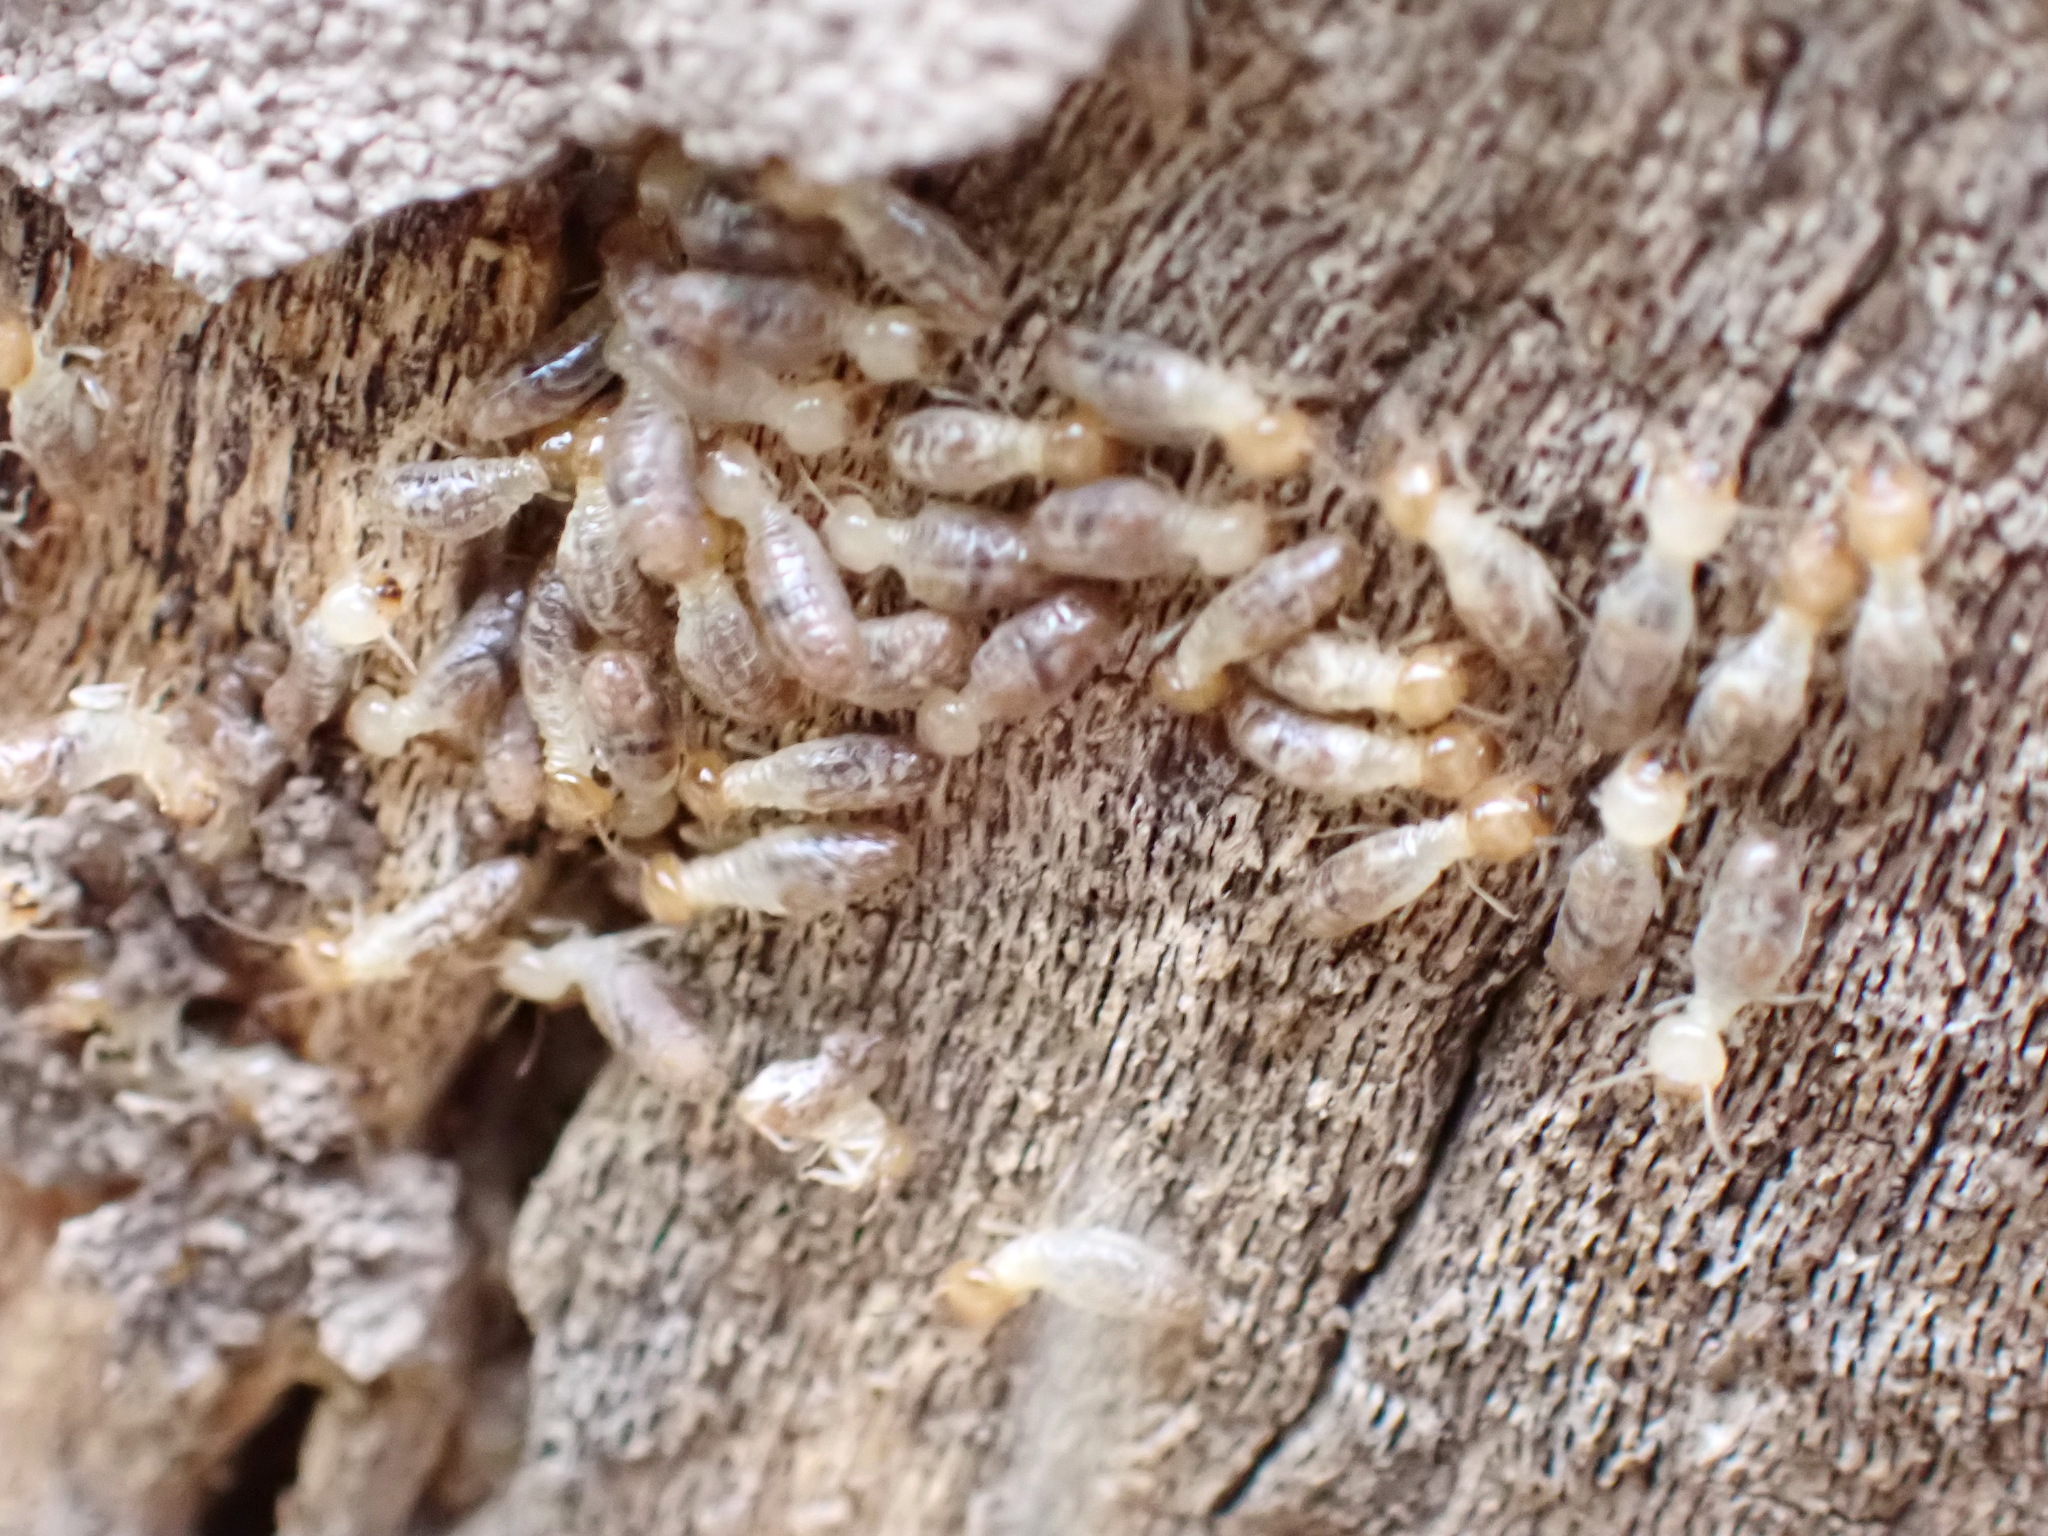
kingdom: Animalia
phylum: Arthropoda
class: Insecta
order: Blattodea
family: Termitidae
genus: Gnathamitermes
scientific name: Gnathamitermes
